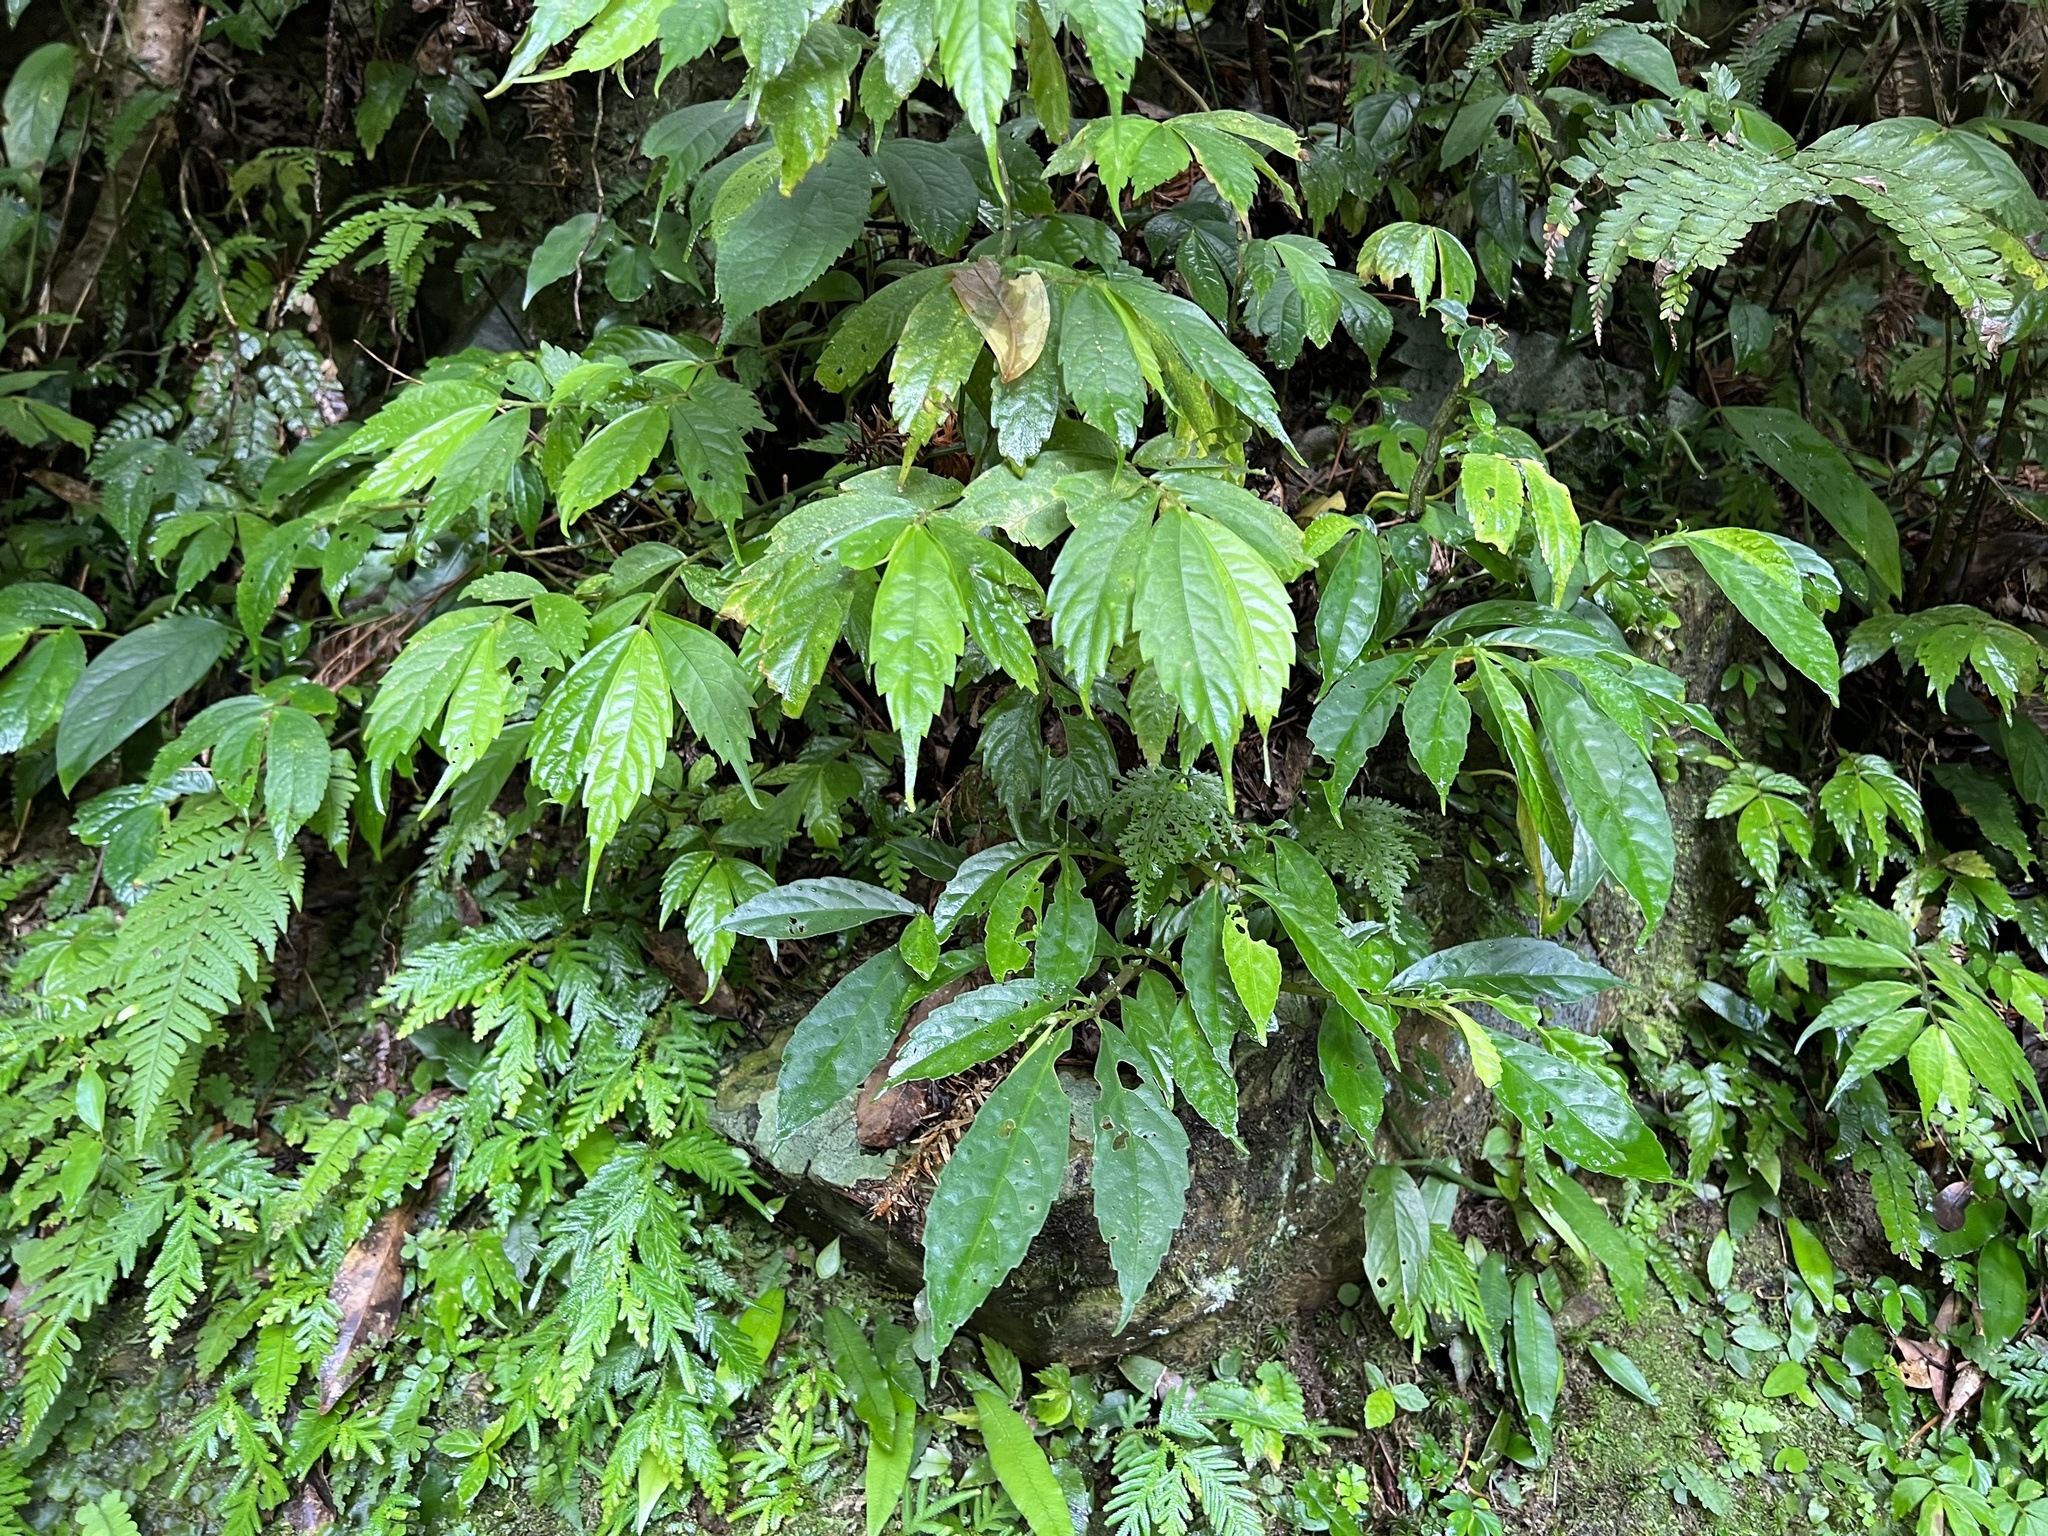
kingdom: Plantae
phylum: Tracheophyta
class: Magnoliopsida
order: Rosales
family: Urticaceae
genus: Procris
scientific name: Procris
